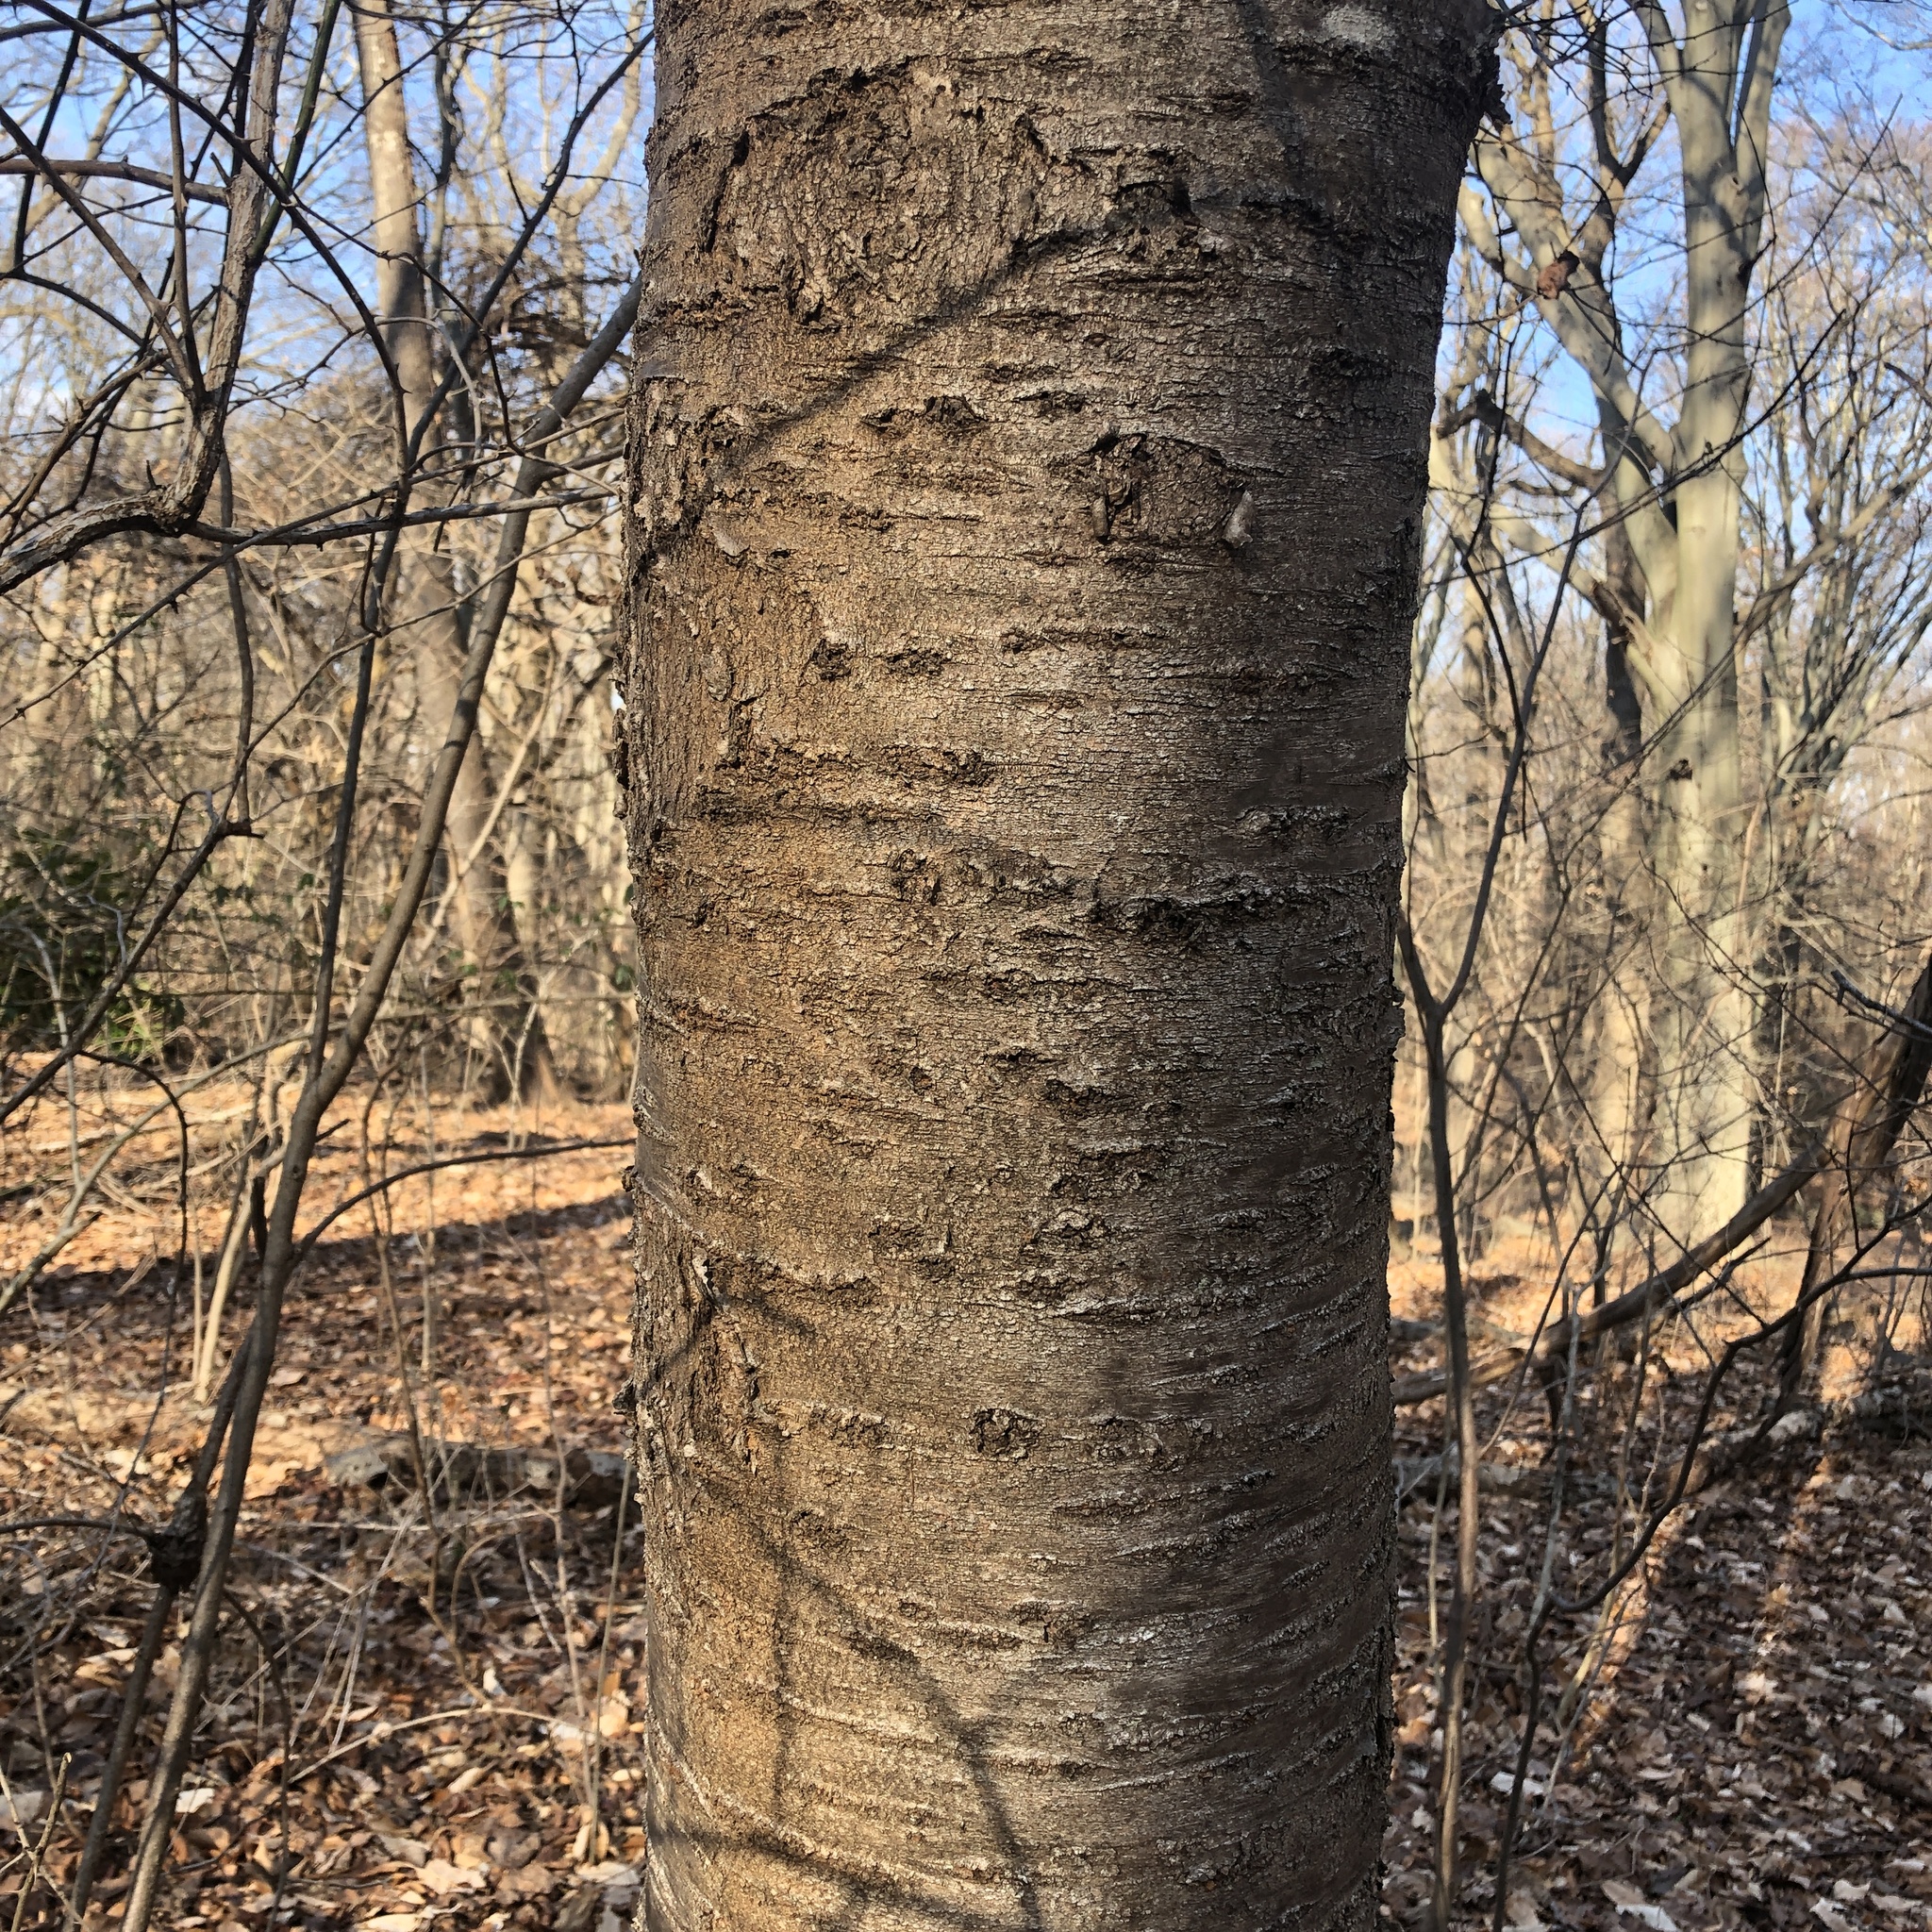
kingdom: Plantae
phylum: Tracheophyta
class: Magnoliopsida
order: Rosales
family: Rosaceae
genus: Prunus
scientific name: Prunus avium
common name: Sweet cherry
